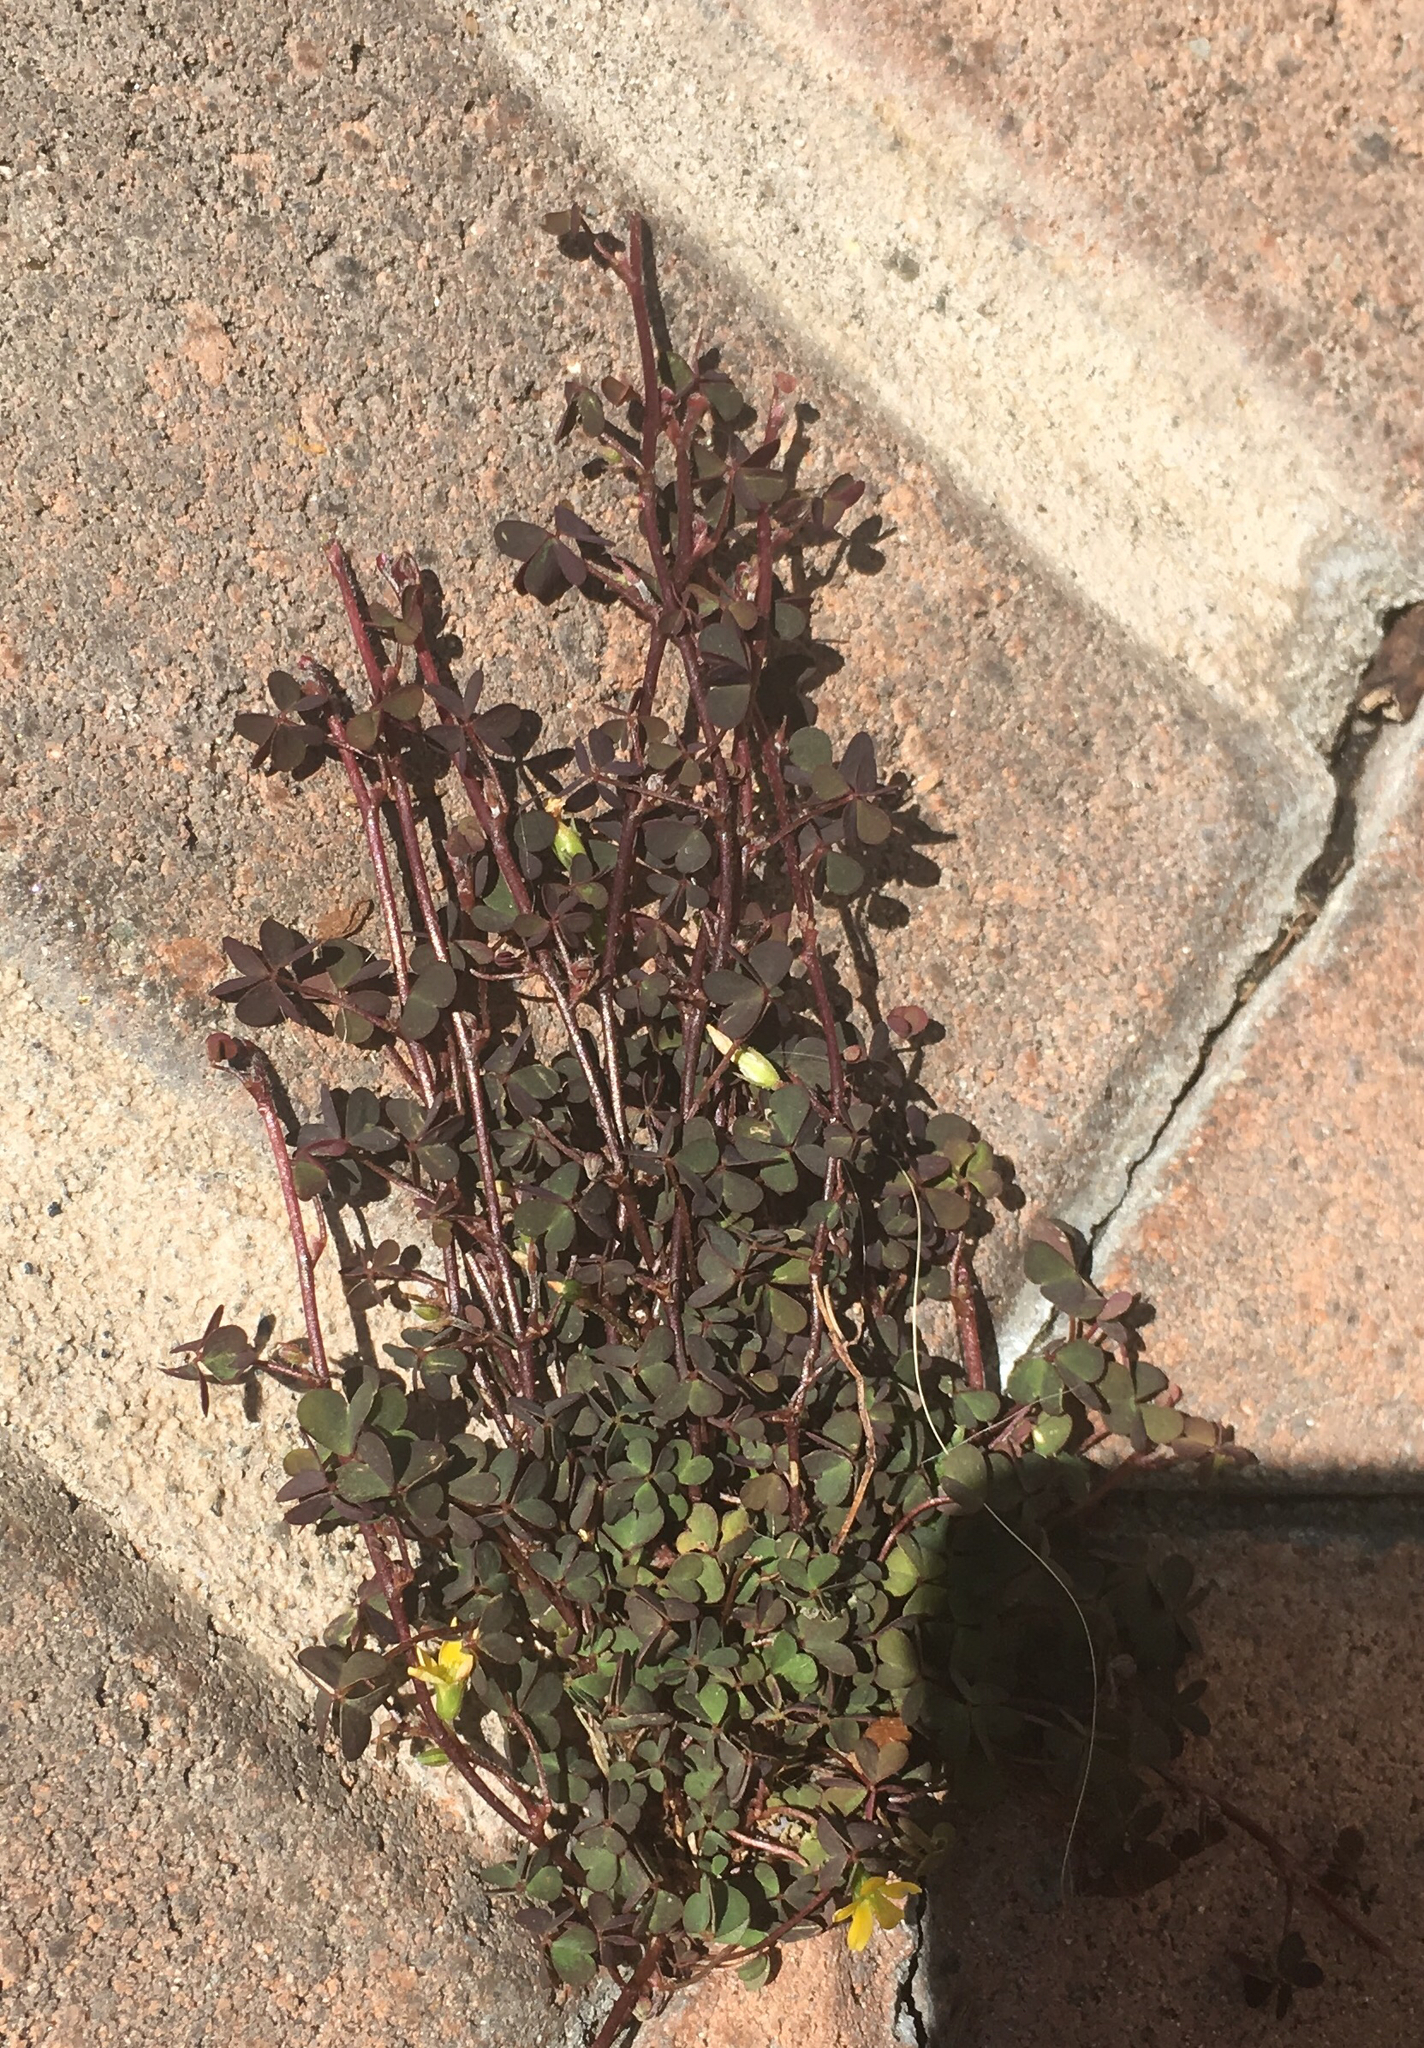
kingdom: Plantae
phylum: Tracheophyta
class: Magnoliopsida
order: Oxalidales
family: Oxalidaceae
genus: Oxalis
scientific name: Oxalis corniculata
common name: Procumbent yellow-sorrel
